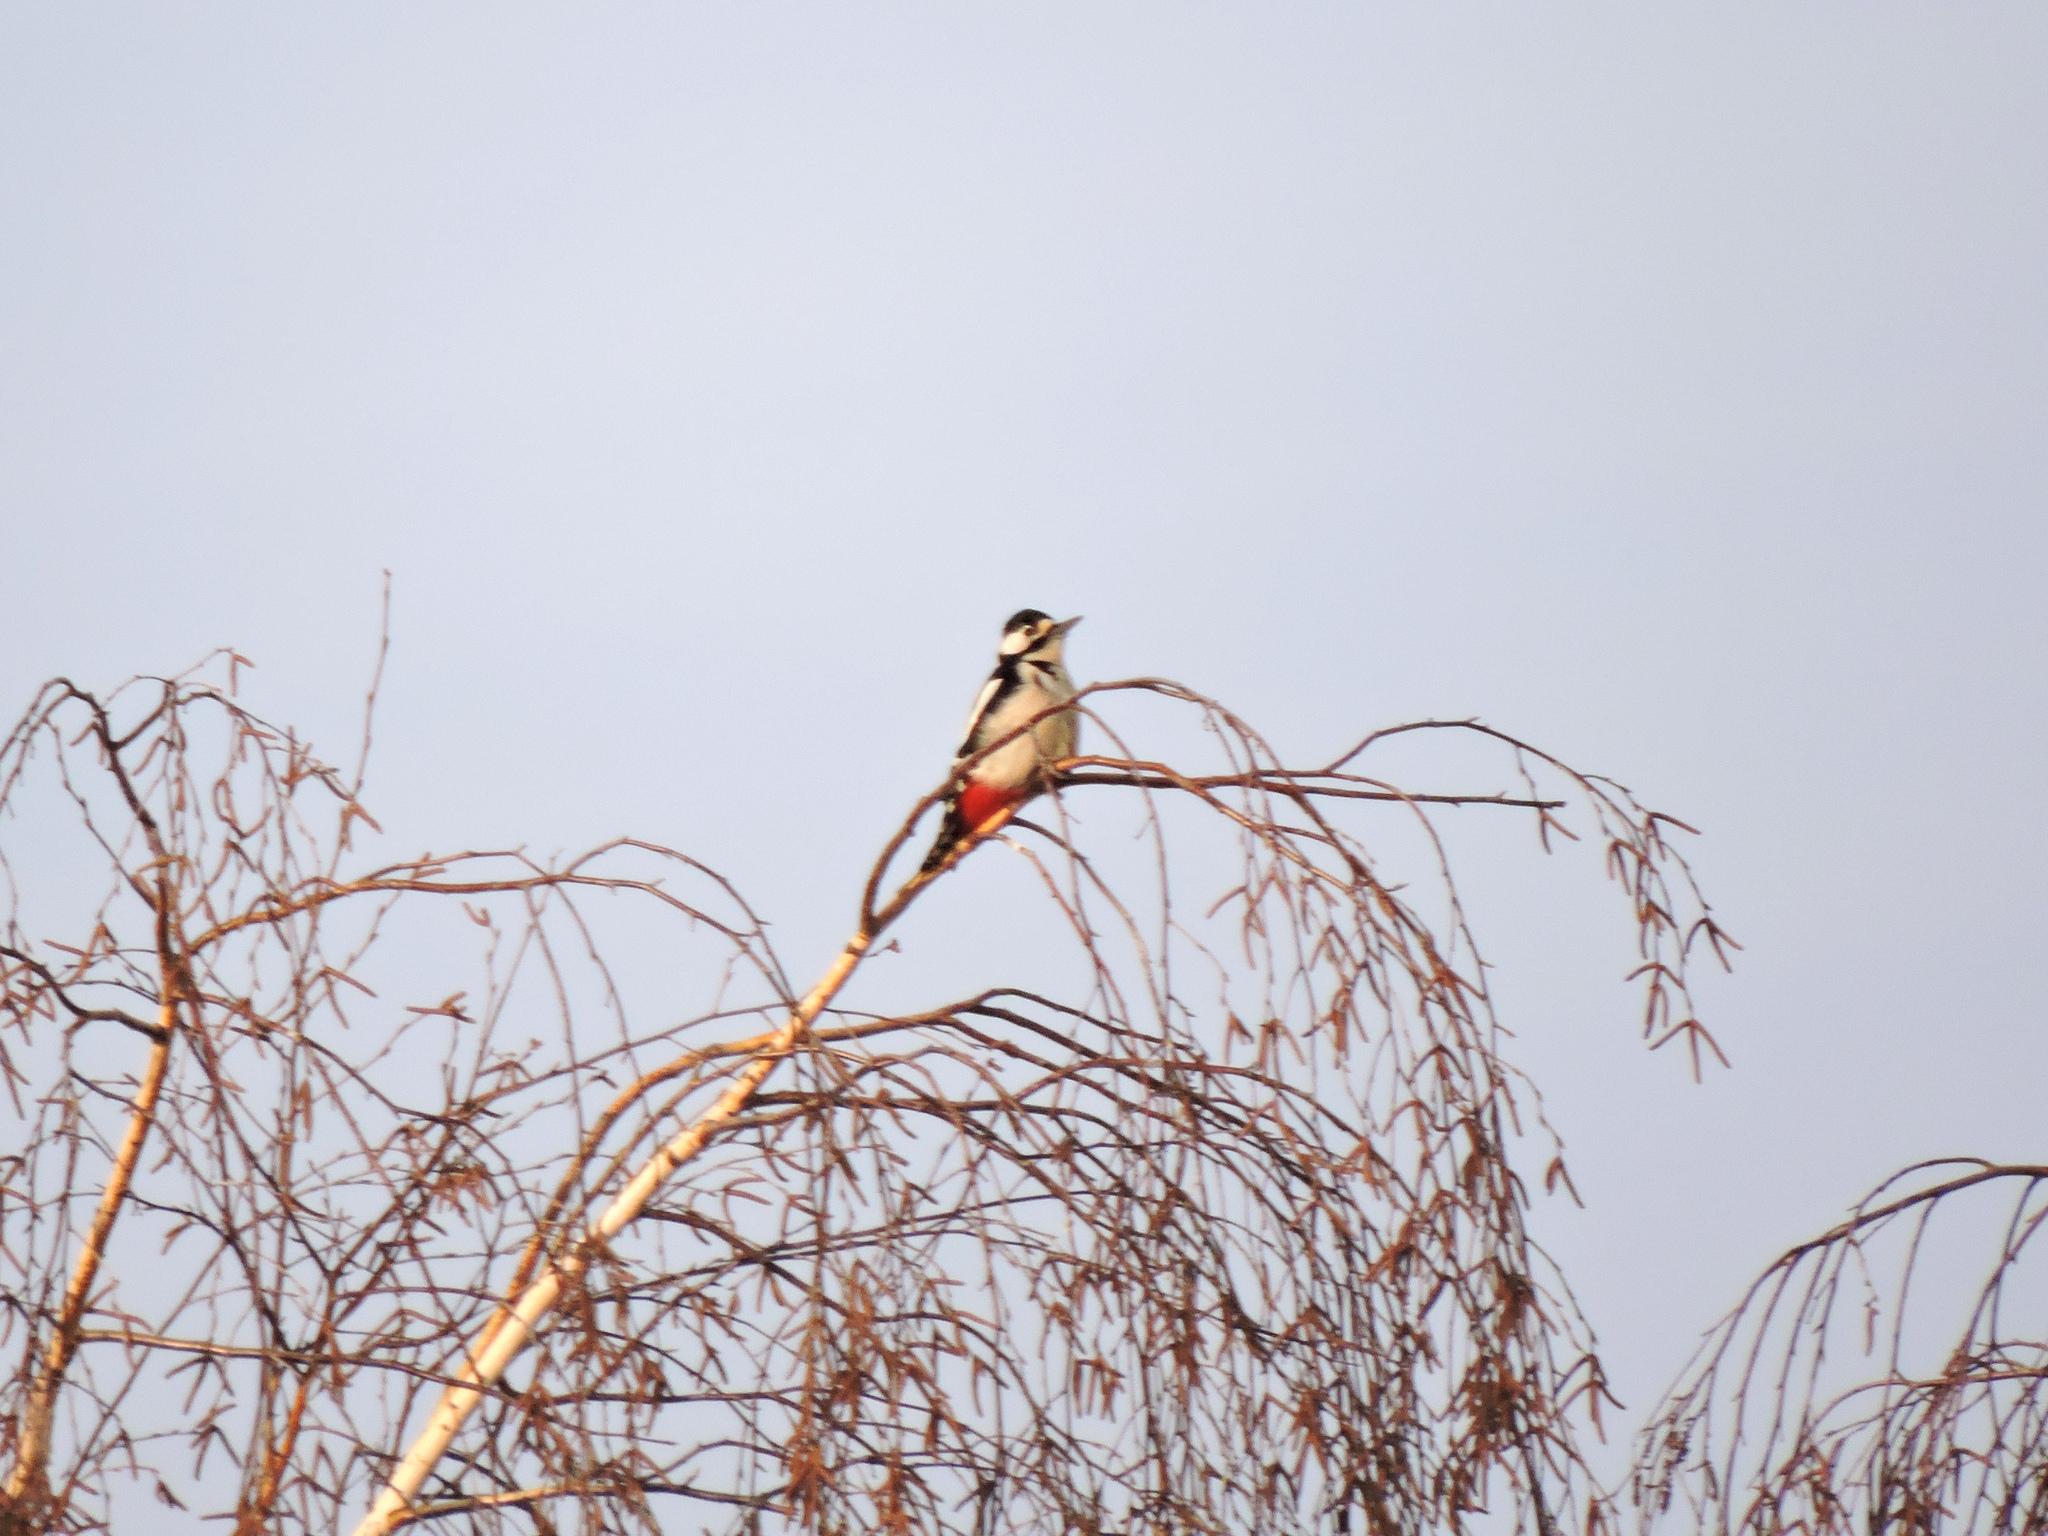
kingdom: Animalia
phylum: Chordata
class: Aves
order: Piciformes
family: Picidae
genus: Dendrocopos
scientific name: Dendrocopos major
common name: Great spotted woodpecker
